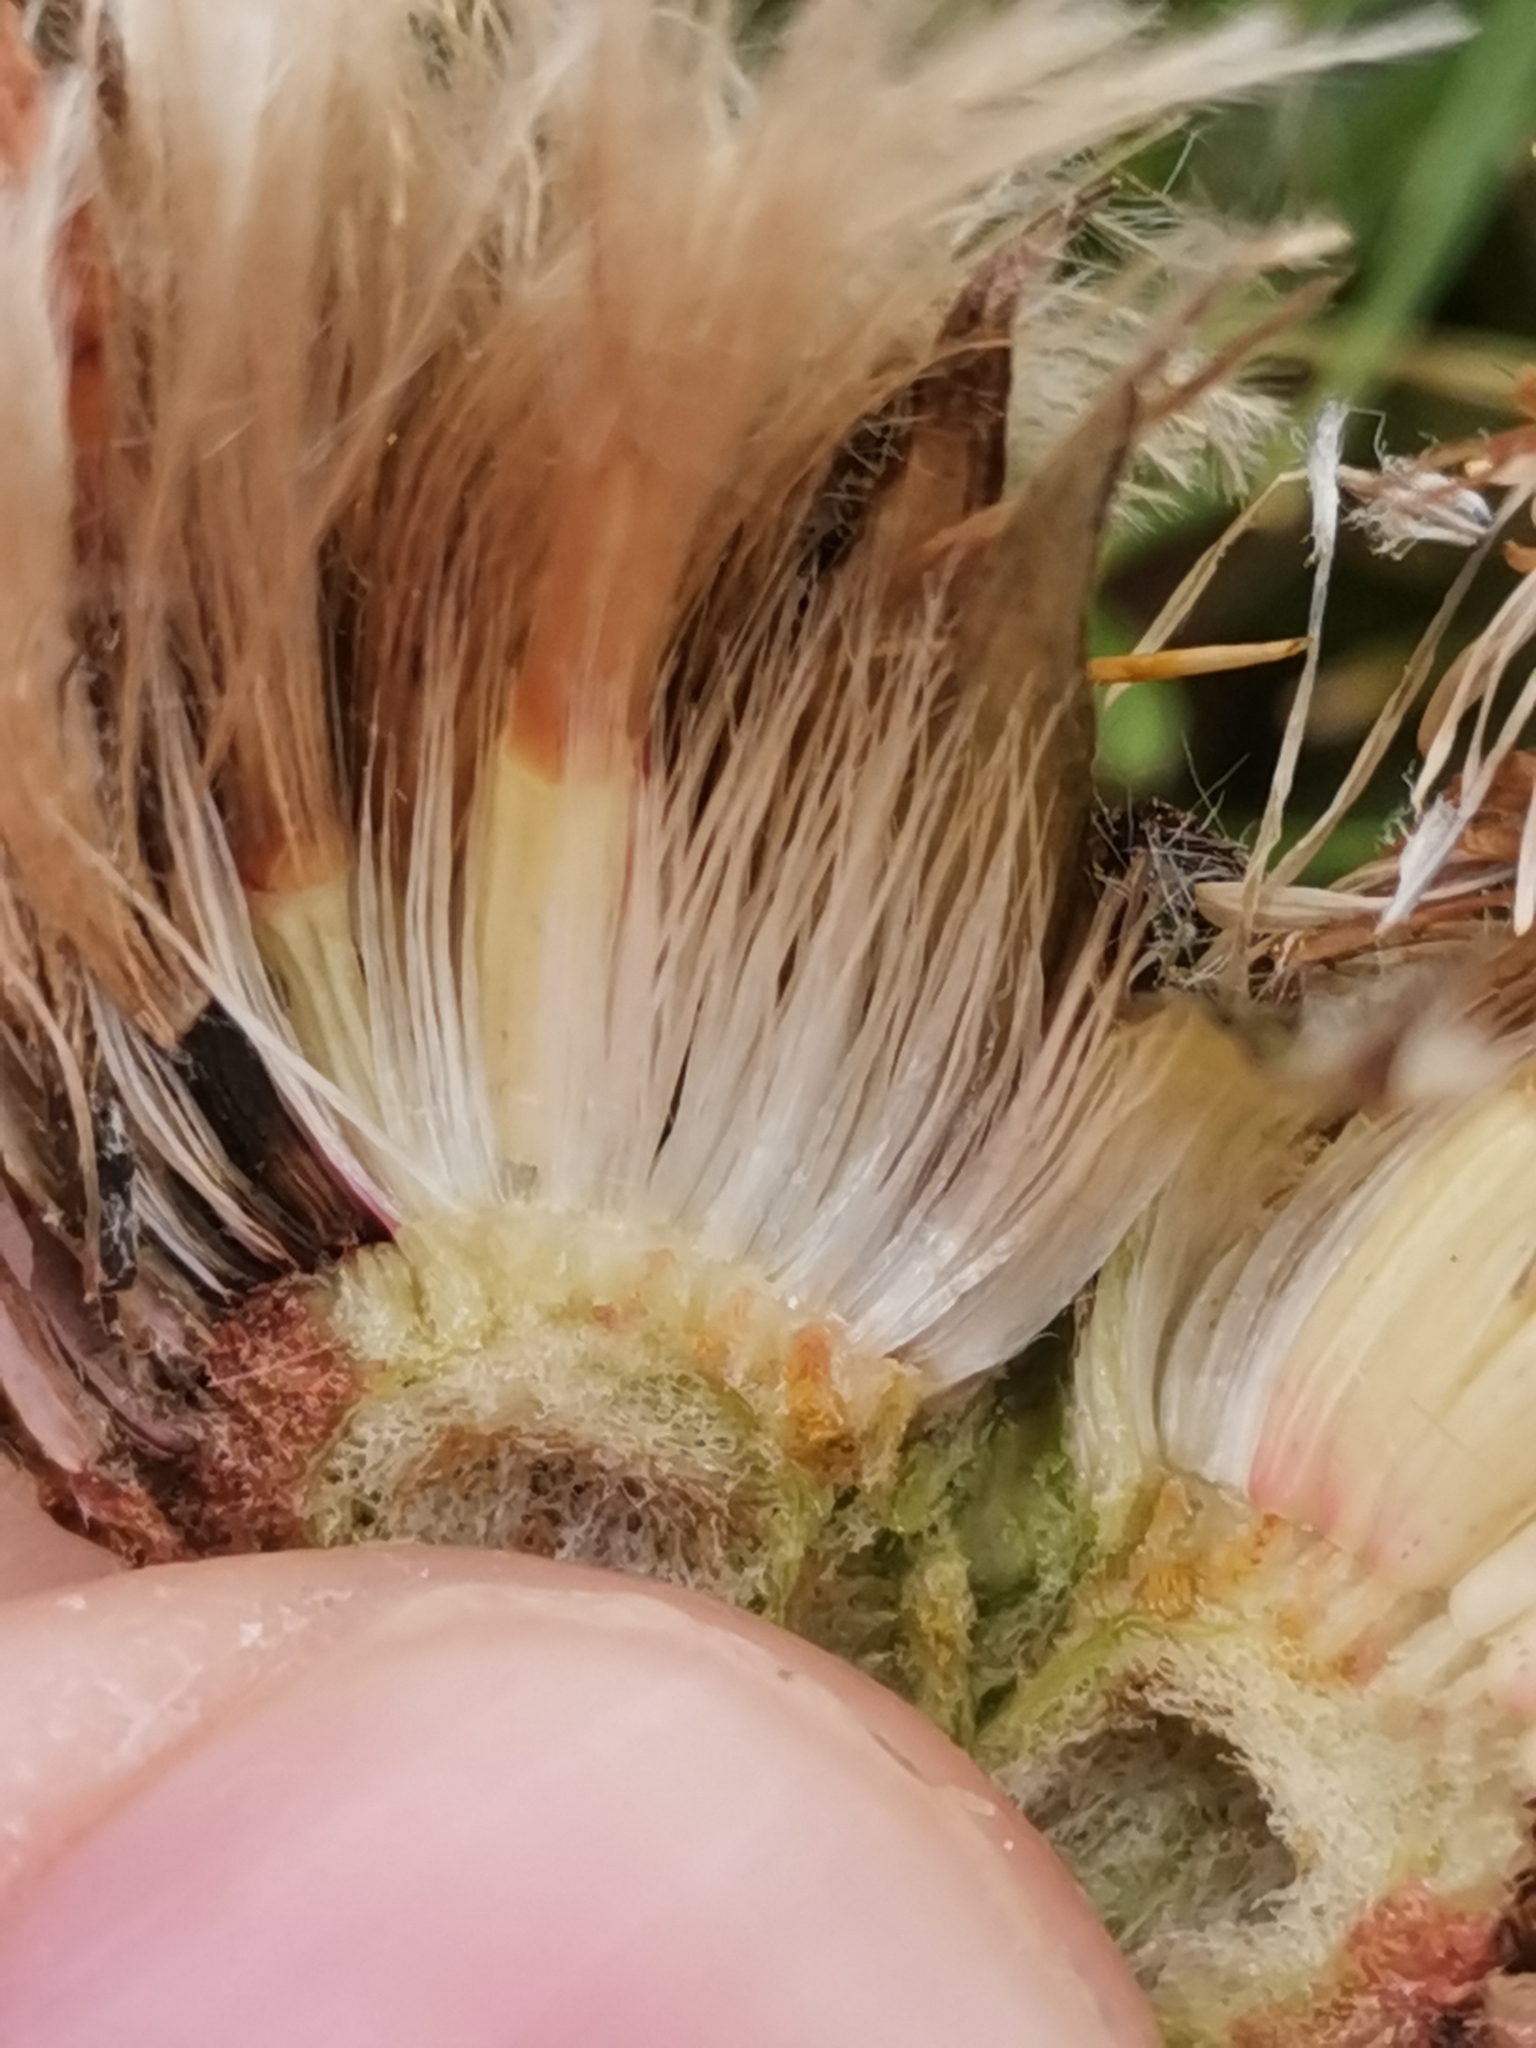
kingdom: Plantae
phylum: Tracheophyta
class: Magnoliopsida
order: Asterales
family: Asteraceae
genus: Saussurea
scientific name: Saussurea pygmaea
